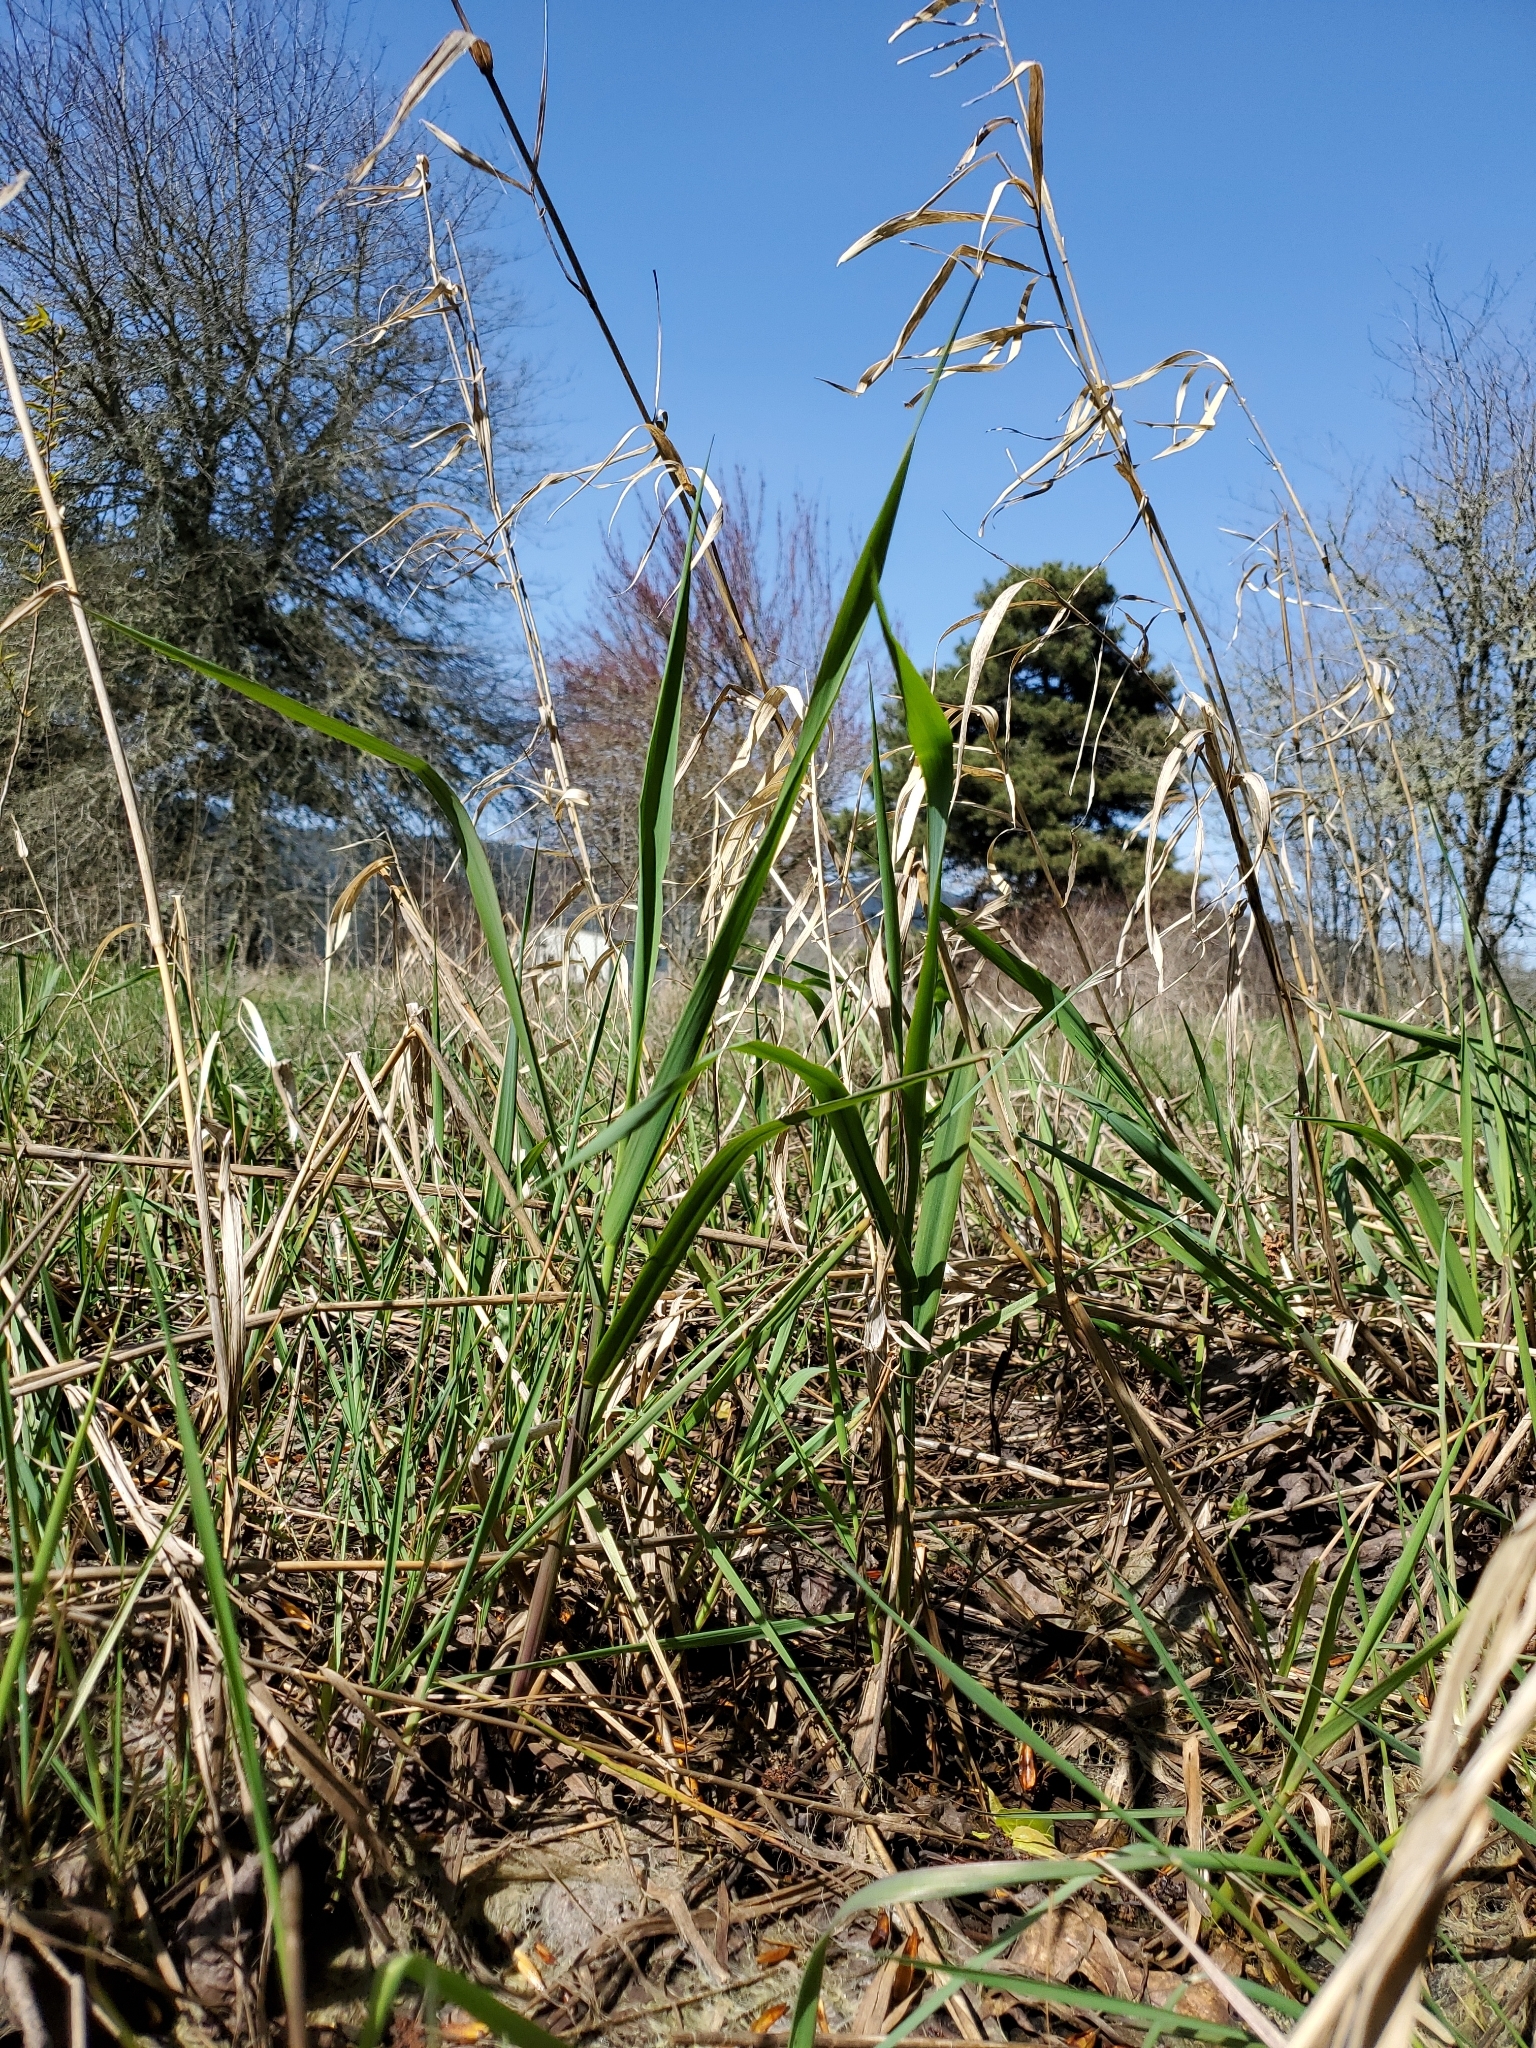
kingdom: Plantae
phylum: Tracheophyta
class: Liliopsida
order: Poales
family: Poaceae
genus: Phalaris
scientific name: Phalaris arundinacea
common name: Reed canary-grass
